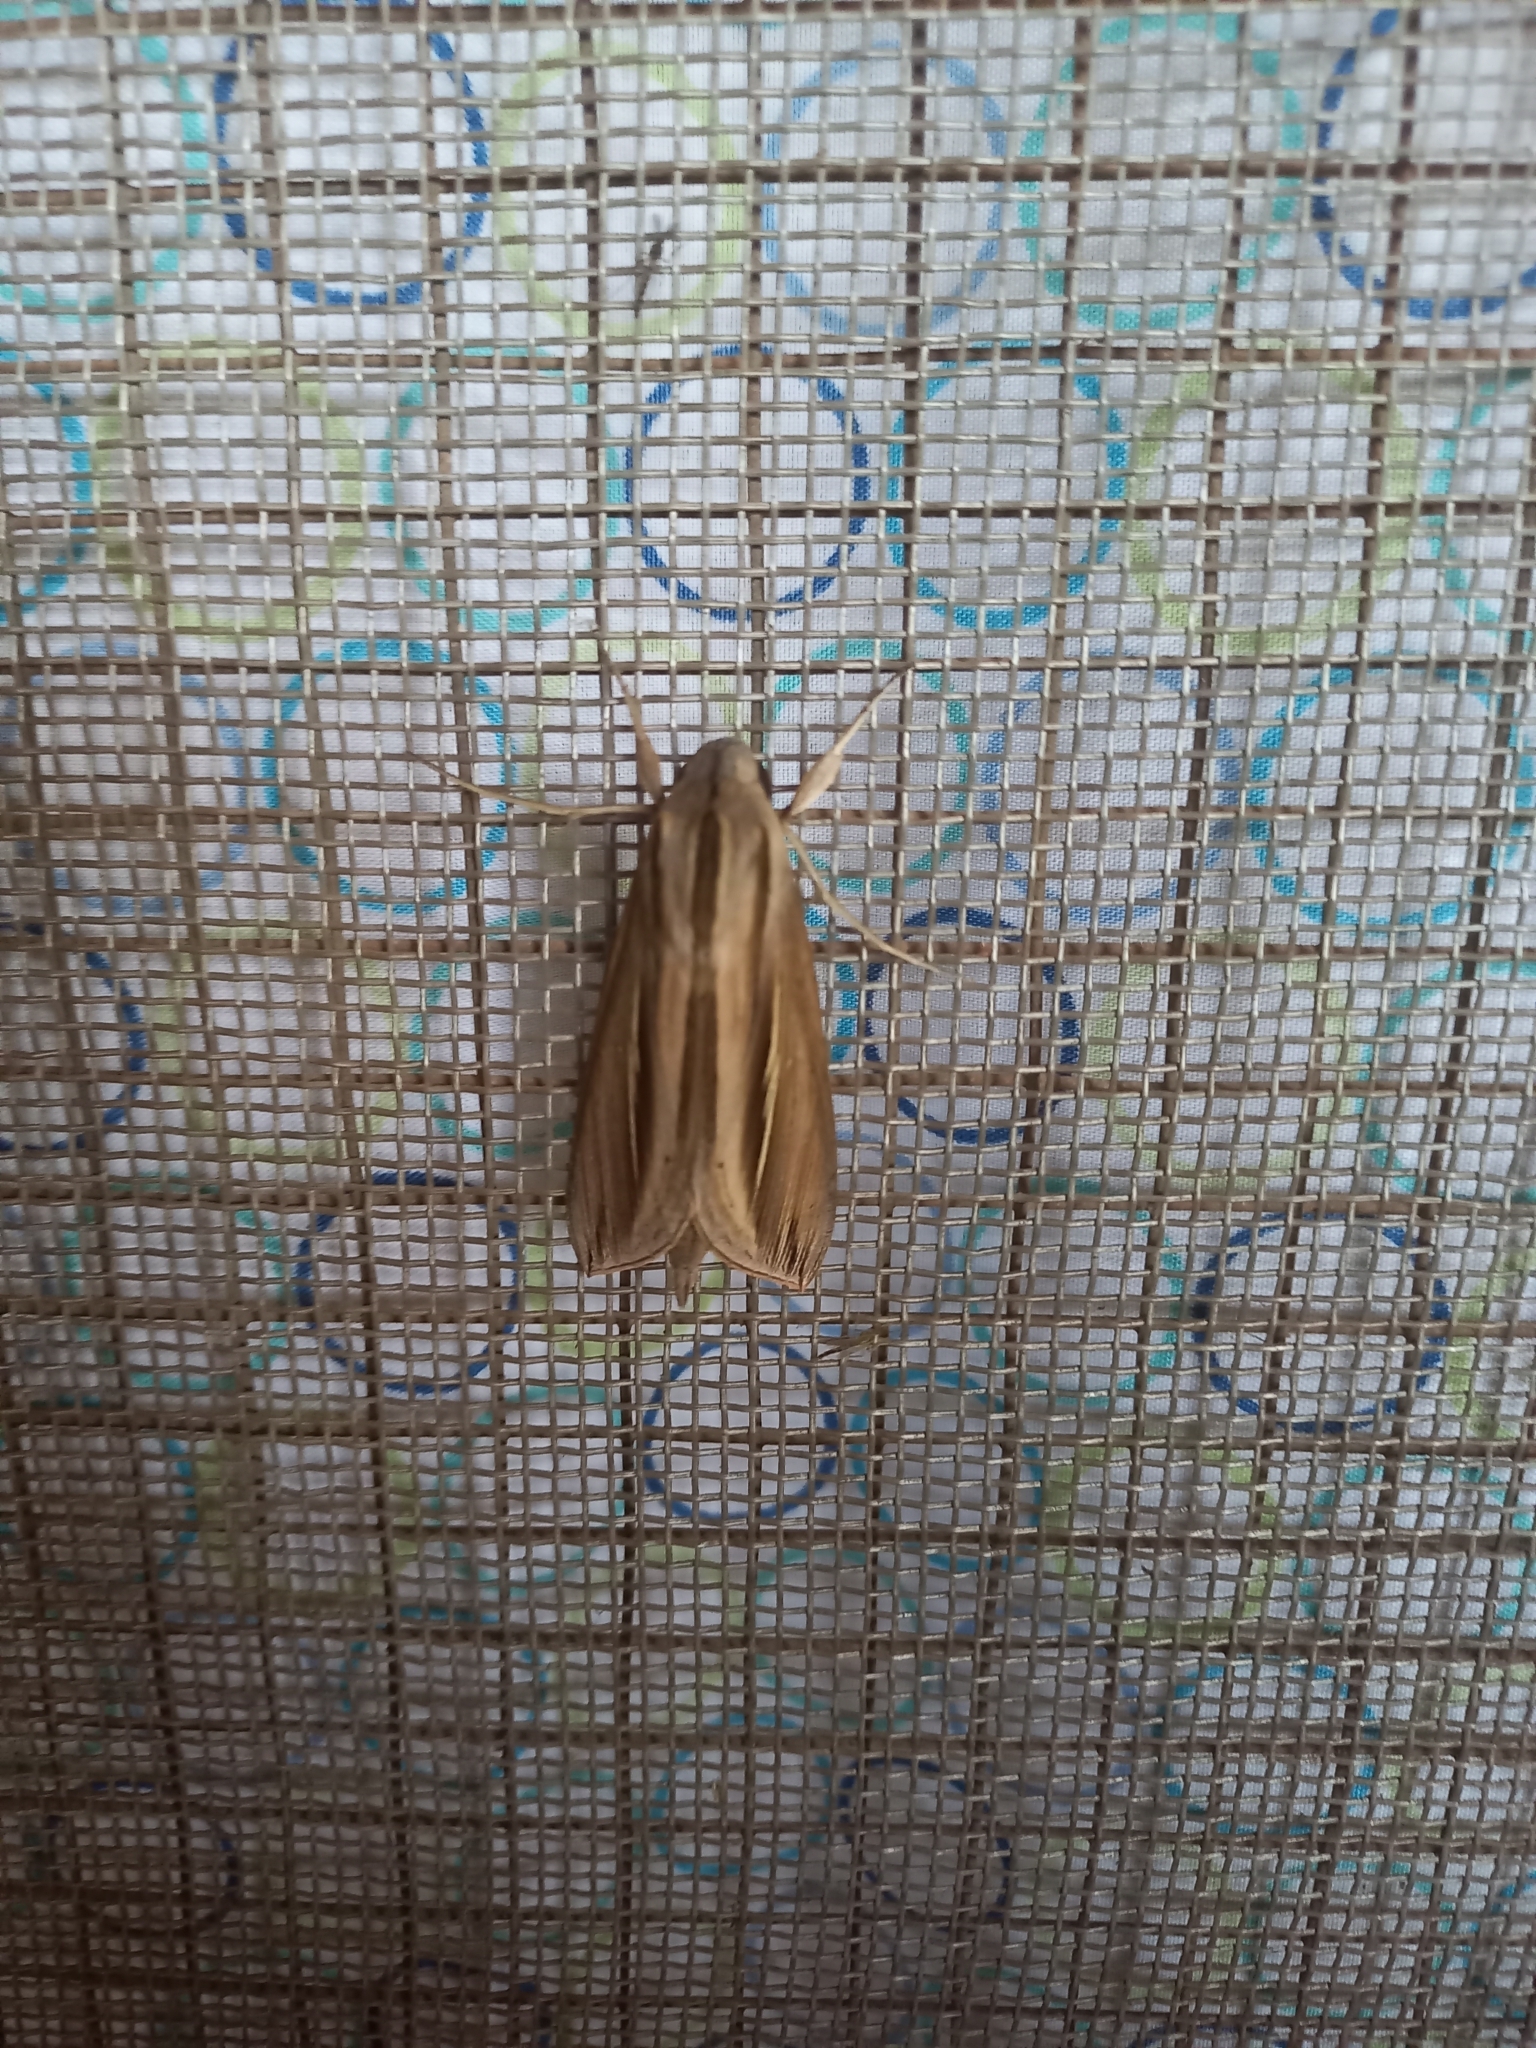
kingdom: Animalia
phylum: Arthropoda
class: Insecta
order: Lepidoptera
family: Sphingidae
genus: Phryxus
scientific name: Phryxus caicus
